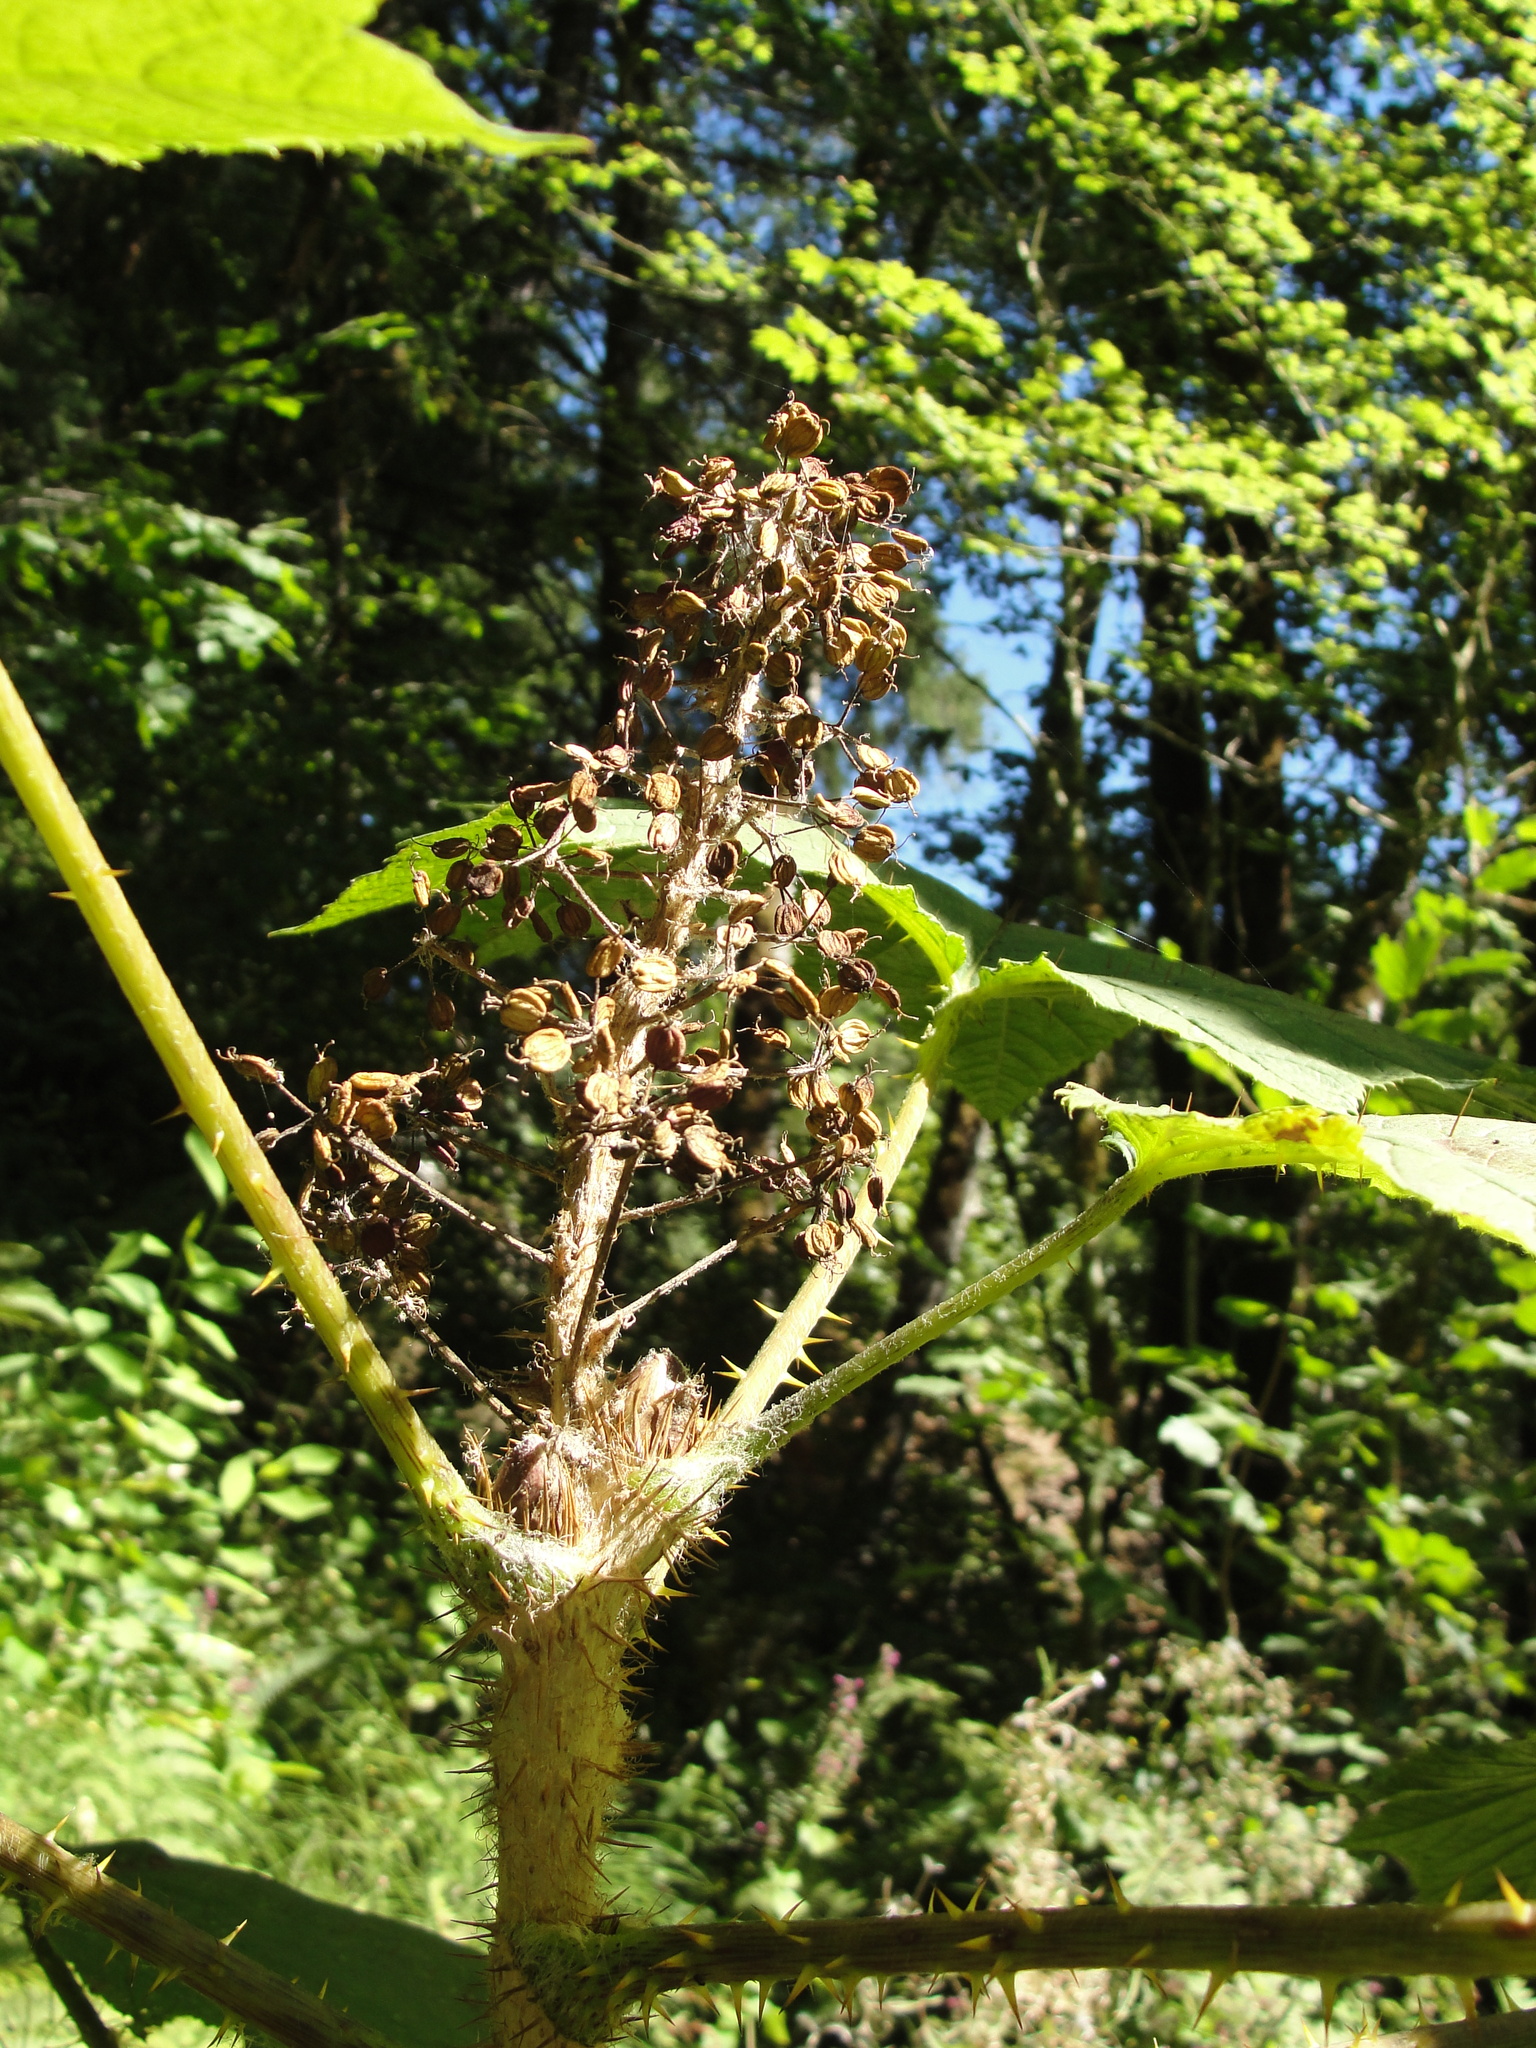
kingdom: Plantae
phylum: Tracheophyta
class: Magnoliopsida
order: Apiales
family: Araliaceae
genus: Oplopanax
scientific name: Oplopanax horridus
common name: Devil's walking-stick
